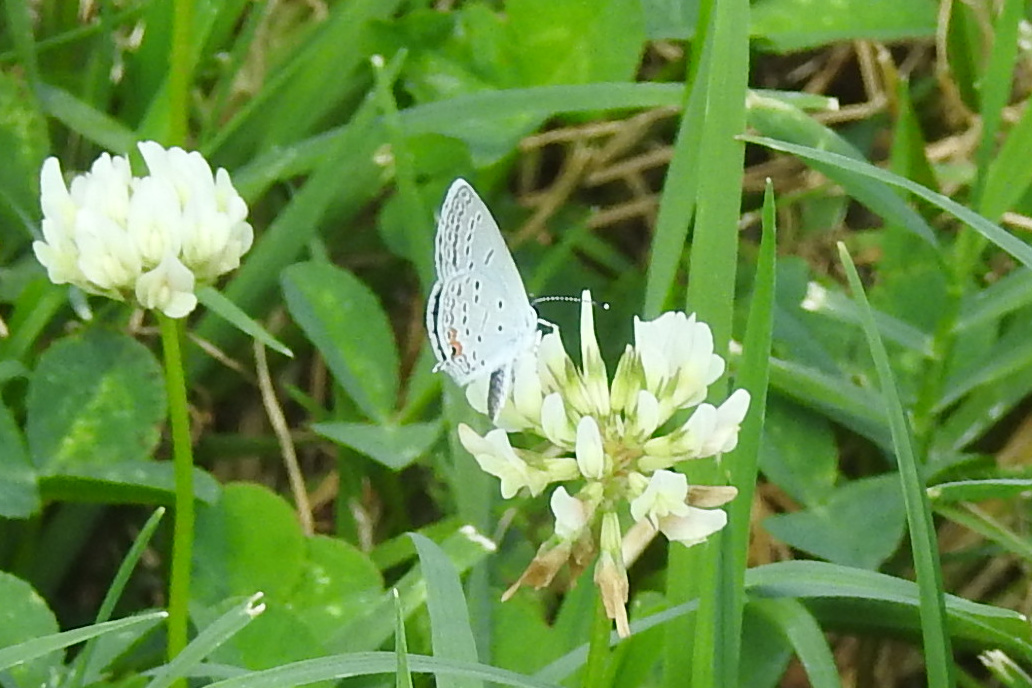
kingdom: Animalia
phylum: Arthropoda
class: Insecta
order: Lepidoptera
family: Lycaenidae
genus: Elkalyce
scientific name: Elkalyce comyntas
